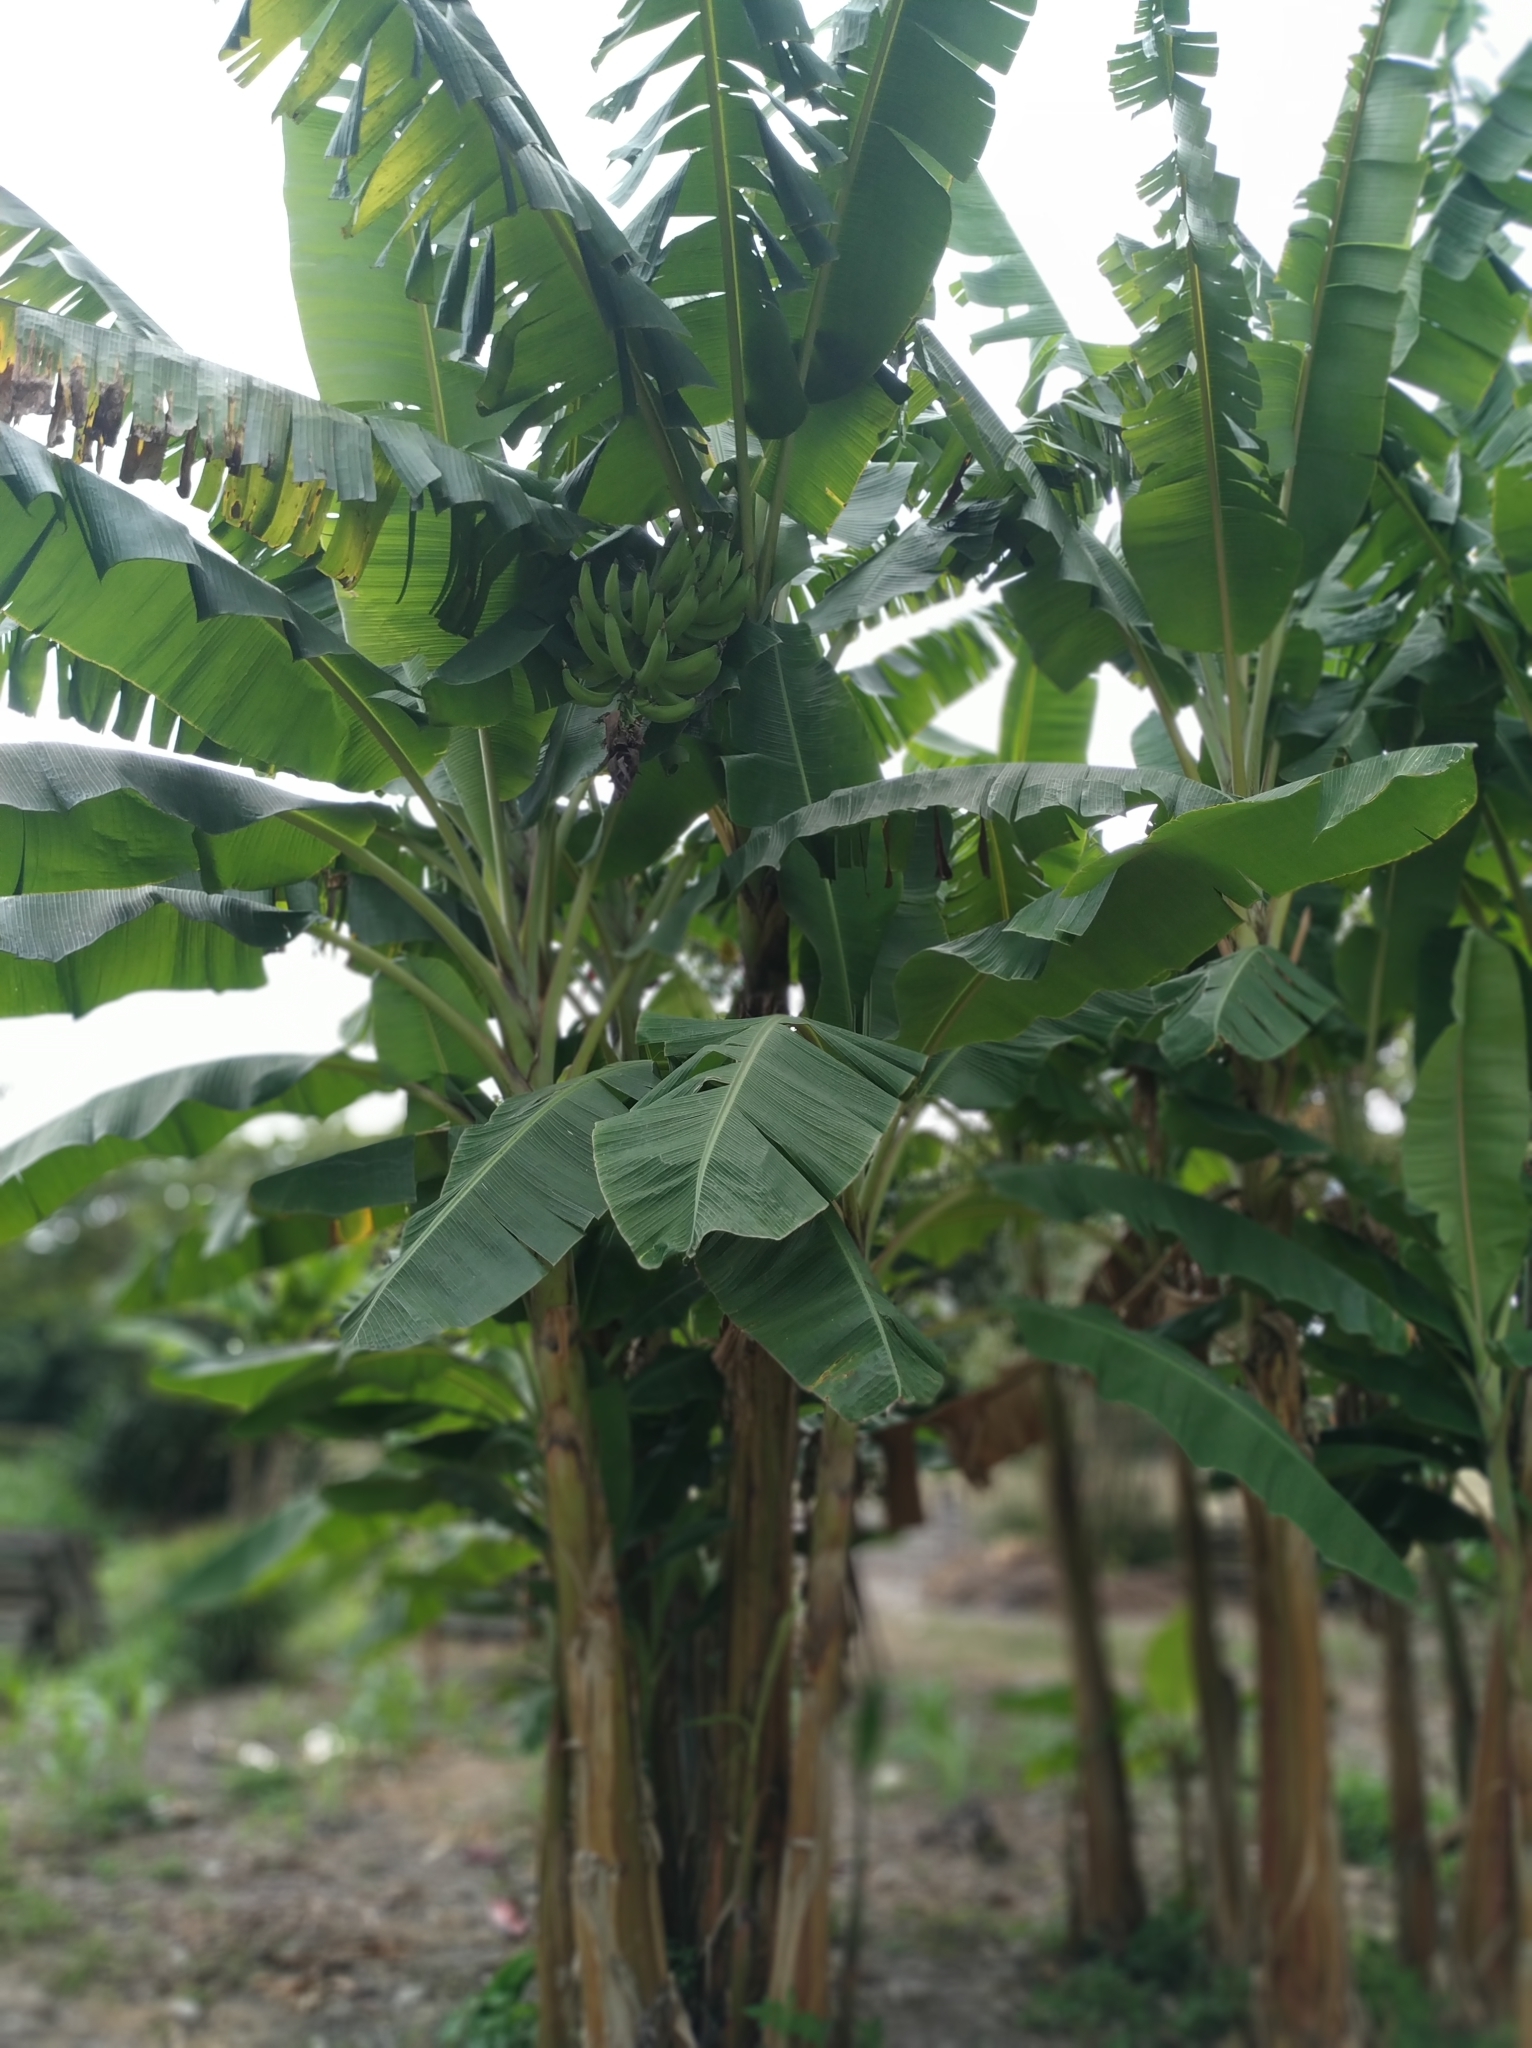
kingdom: Plantae
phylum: Tracheophyta
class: Liliopsida
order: Zingiberales
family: Musaceae
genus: Musa
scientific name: Musa paradisiaca
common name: French plantain
